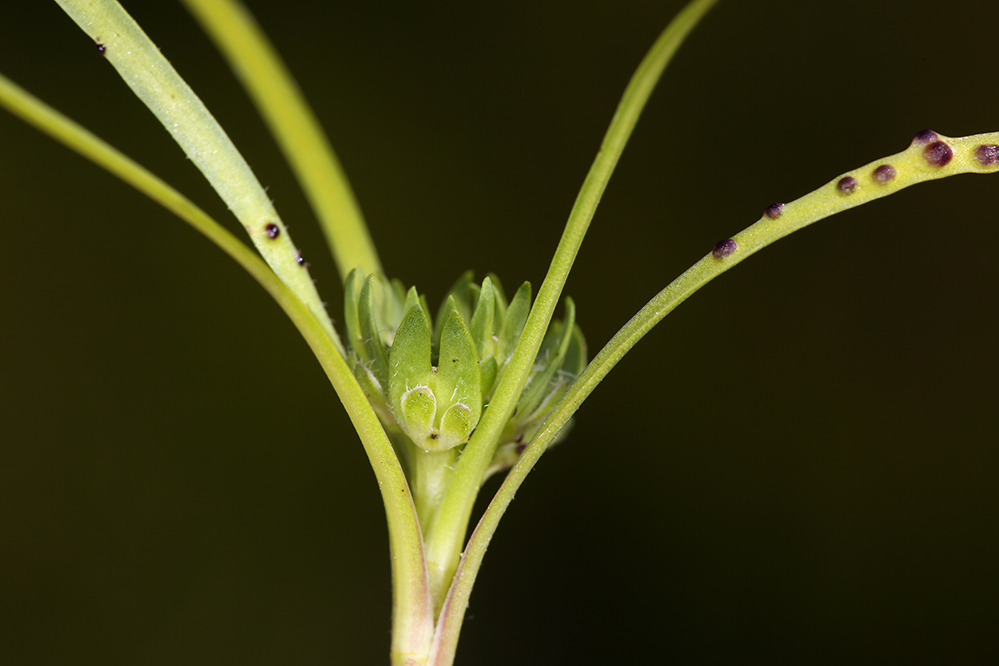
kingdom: Plantae
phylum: Tracheophyta
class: Magnoliopsida
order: Brassicales
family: Brassicaceae
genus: Lepidium
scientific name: Lepidium latipes
